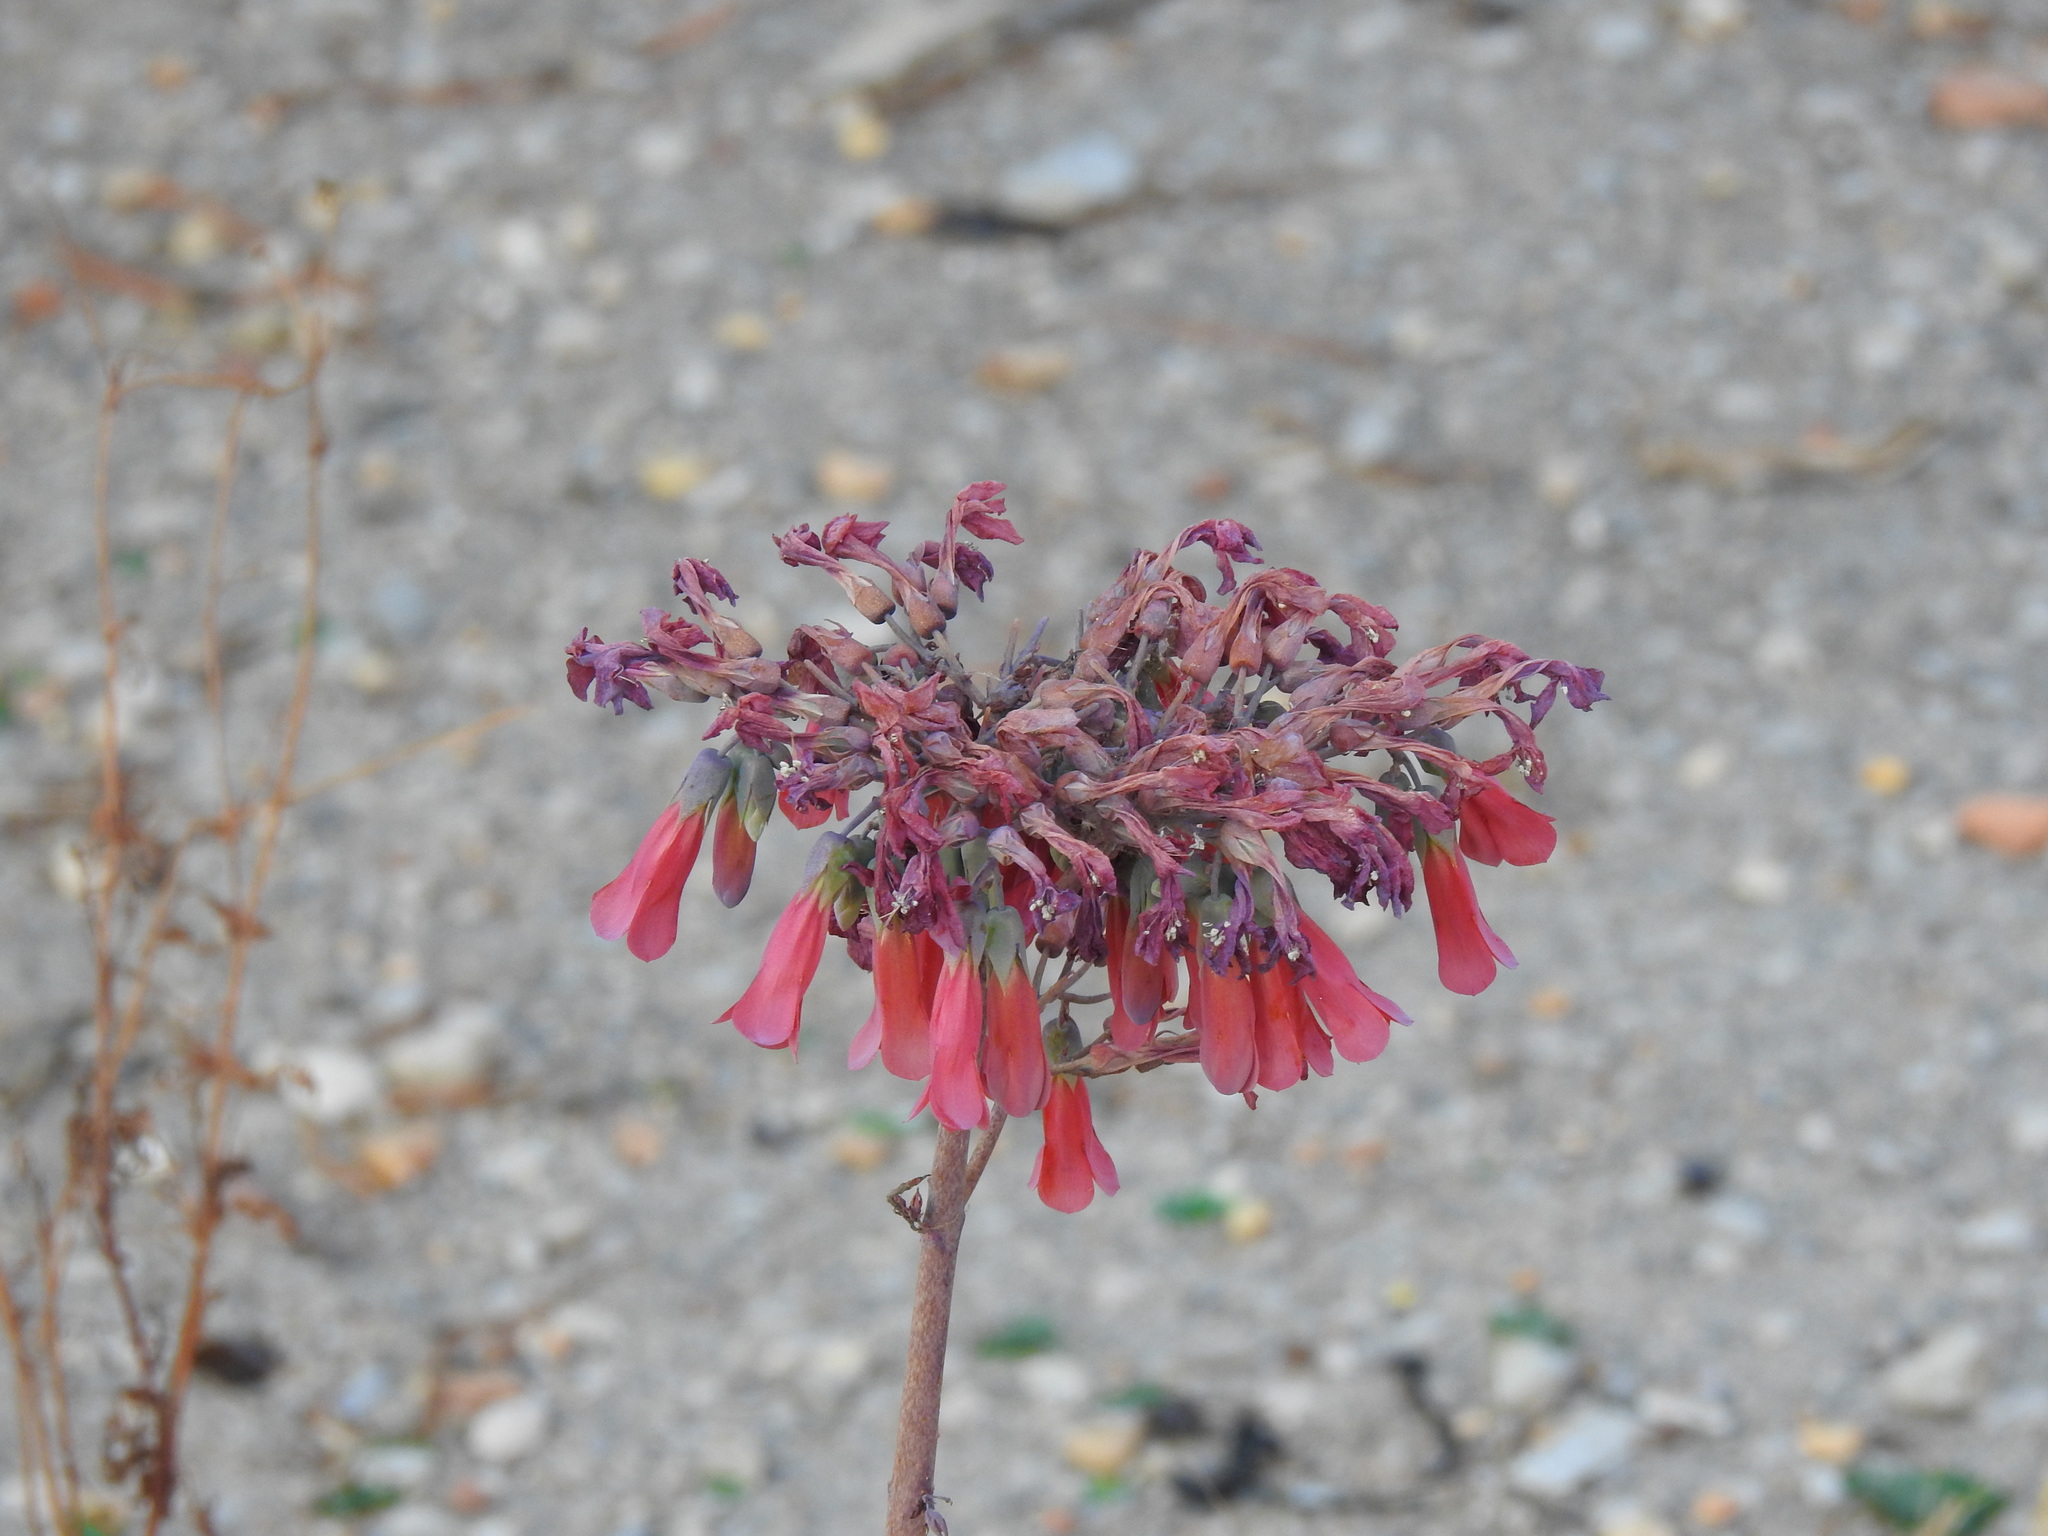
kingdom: Plantae
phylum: Tracheophyta
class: Magnoliopsida
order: Saxifragales
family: Crassulaceae
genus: Kalanchoe
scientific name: Kalanchoe houghtonii
